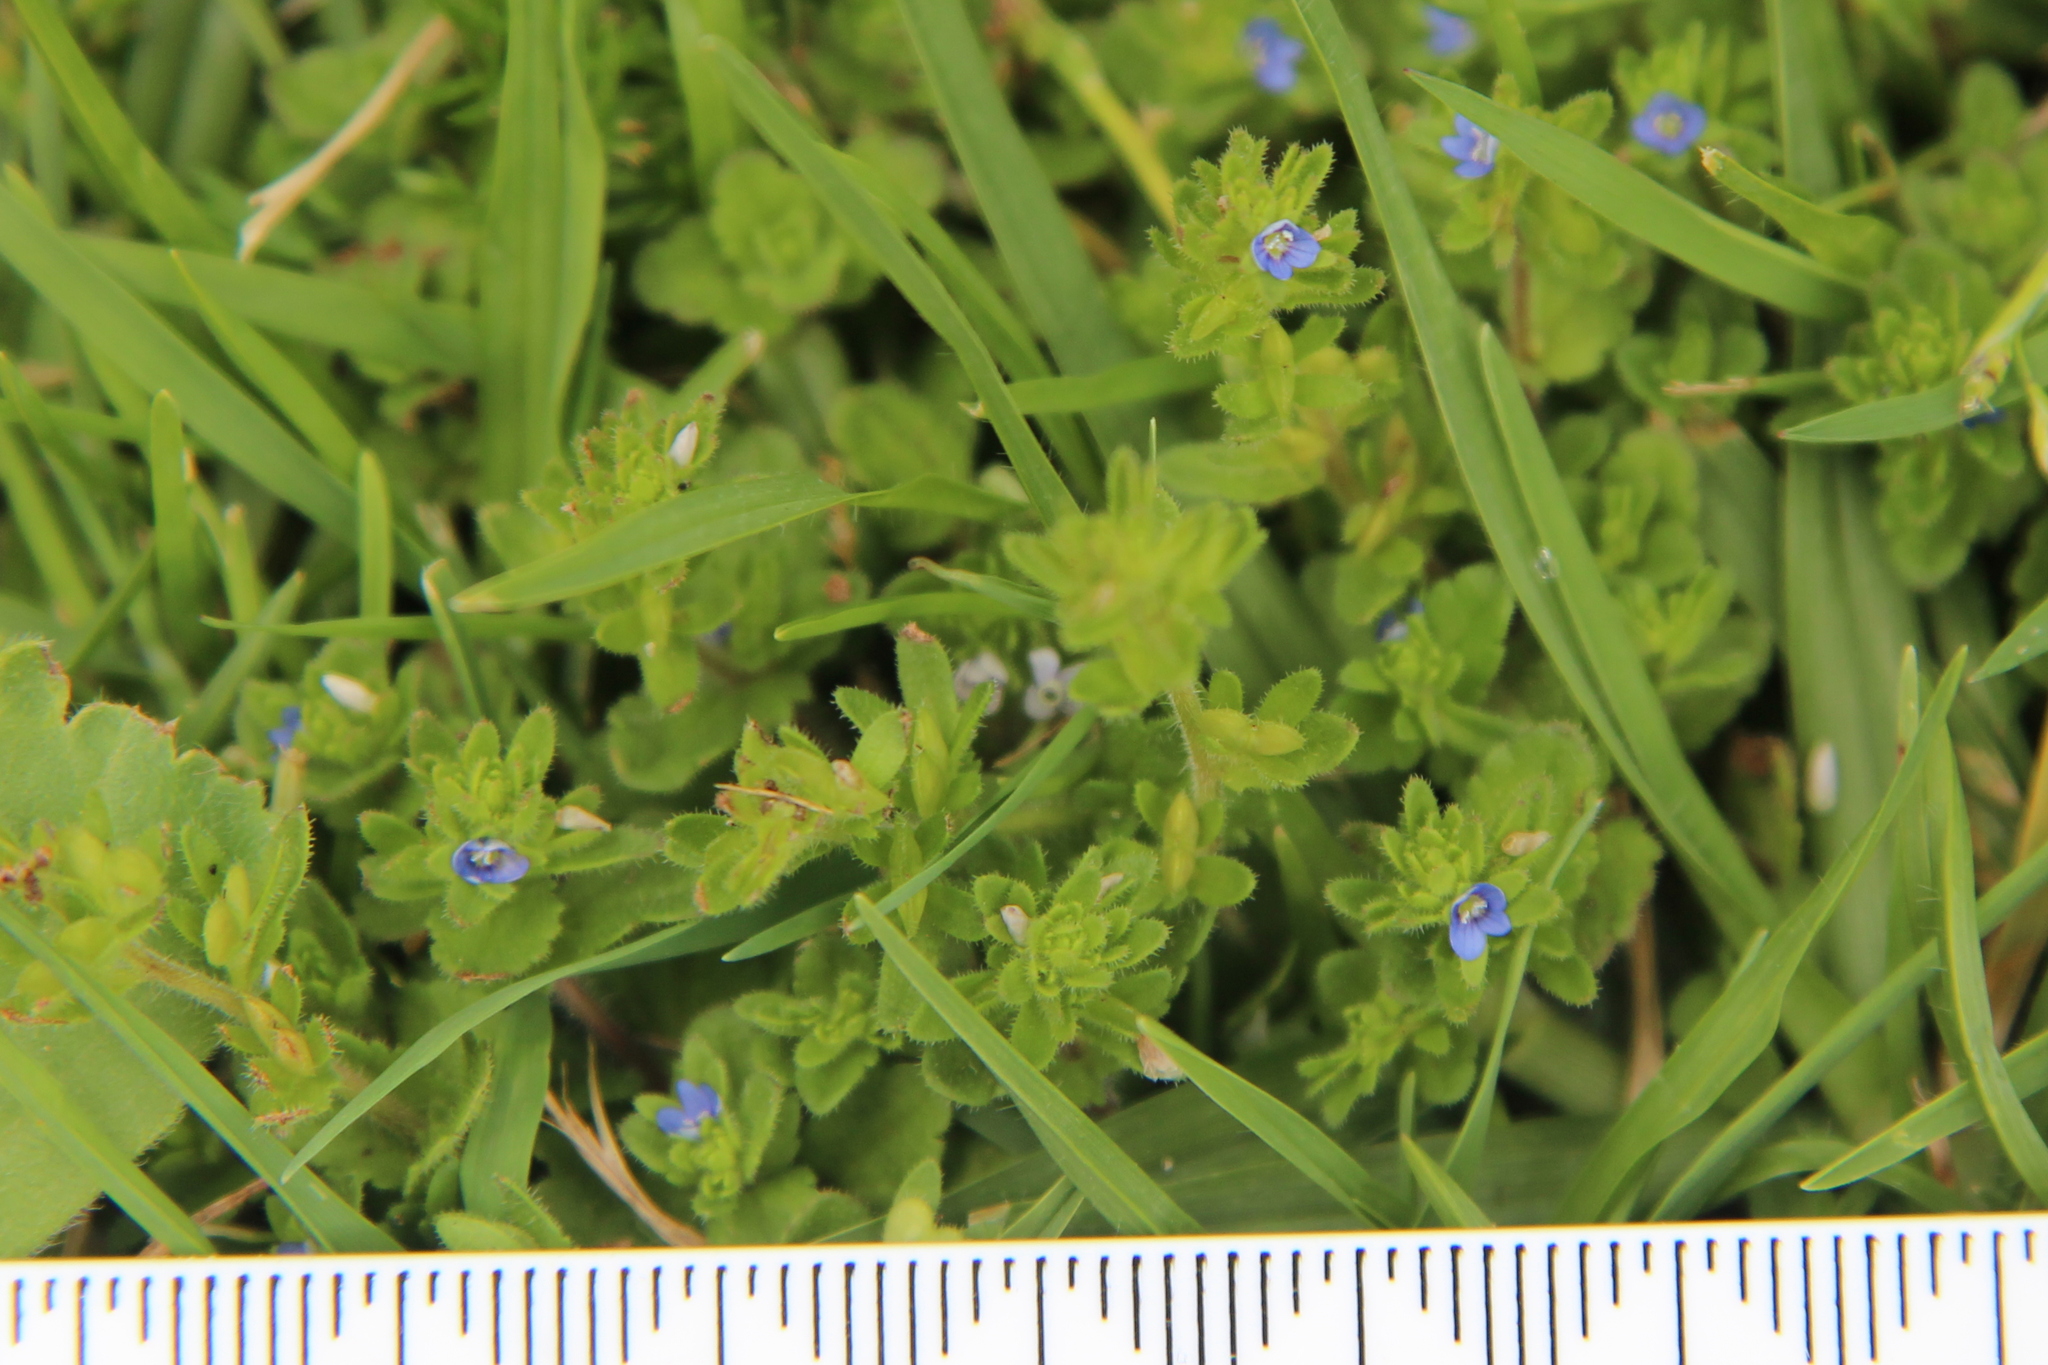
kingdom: Plantae
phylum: Tracheophyta
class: Magnoliopsida
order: Lamiales
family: Plantaginaceae
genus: Veronica
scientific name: Veronica arvensis
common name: Corn speedwell
